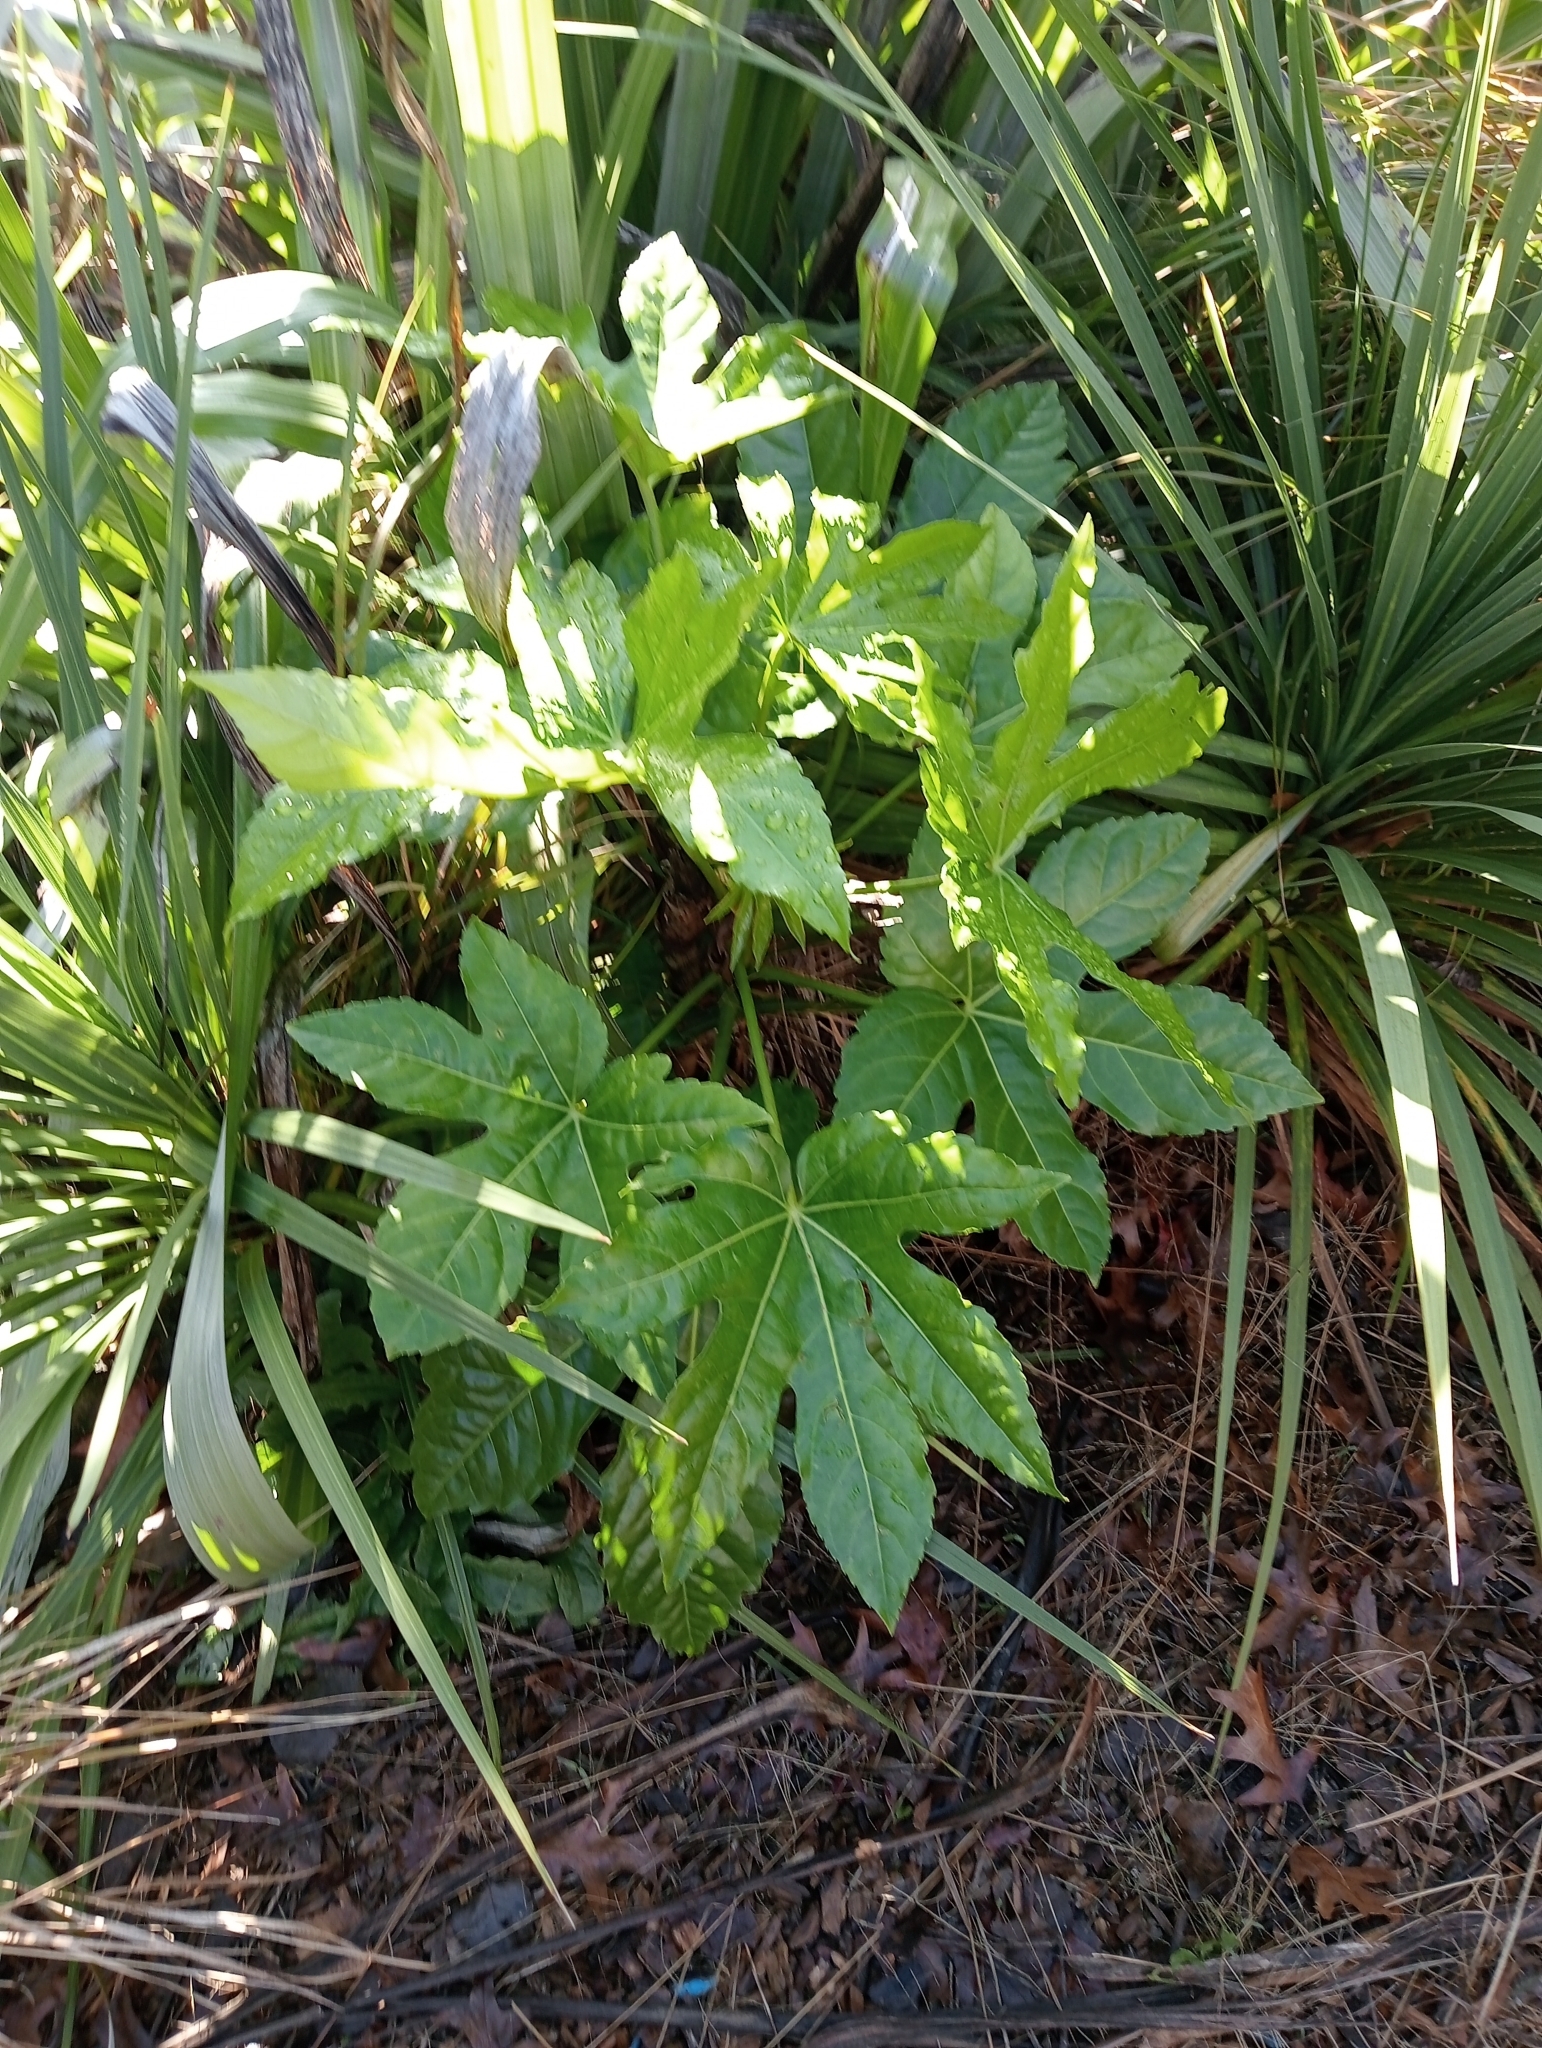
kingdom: Plantae
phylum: Tracheophyta
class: Magnoliopsida
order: Apiales
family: Araliaceae
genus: Fatsia
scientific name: Fatsia japonica
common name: Fatsia
